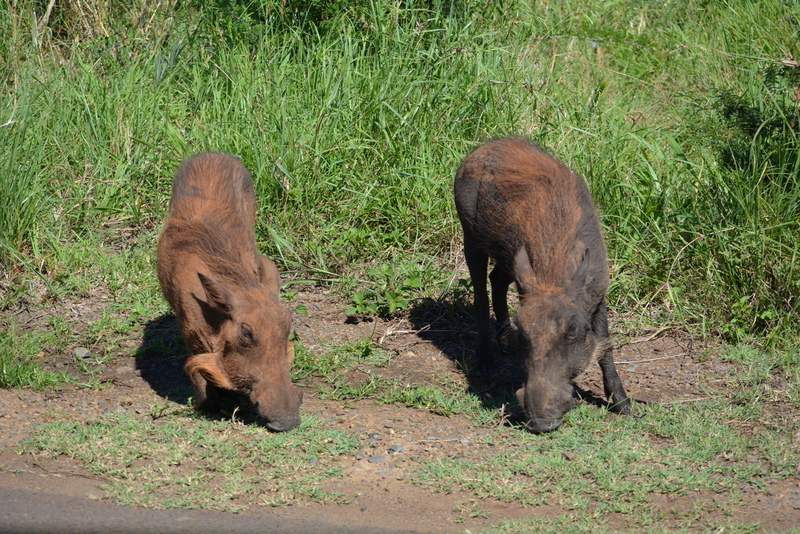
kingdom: Animalia
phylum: Chordata
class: Mammalia
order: Artiodactyla
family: Suidae
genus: Phacochoerus
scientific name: Phacochoerus africanus
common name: Common warthog
